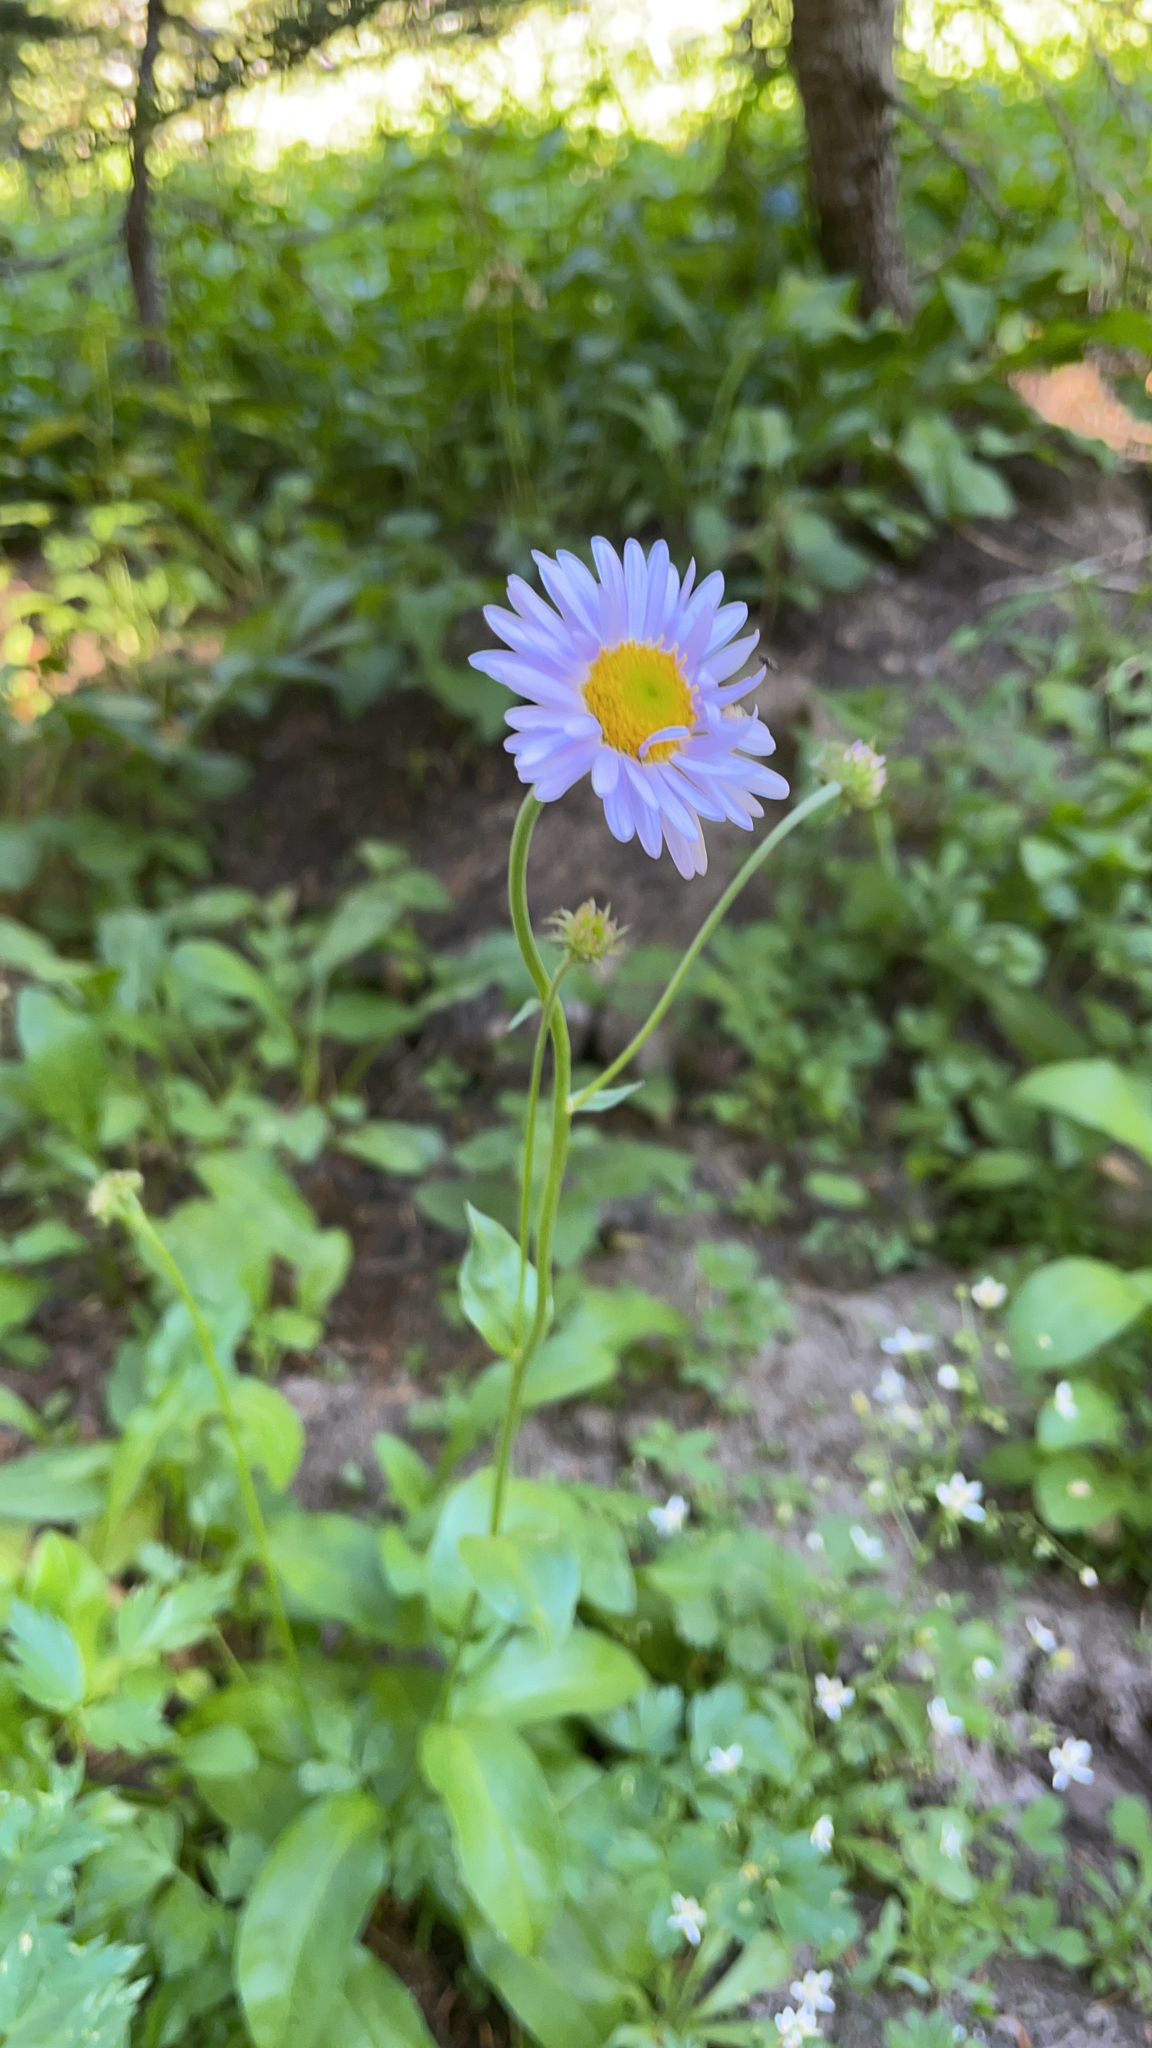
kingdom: Plantae
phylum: Tracheophyta
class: Magnoliopsida
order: Asterales
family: Asteraceae
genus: Erigeron
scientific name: Erigeron glacialis
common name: Subalpine fleabane
